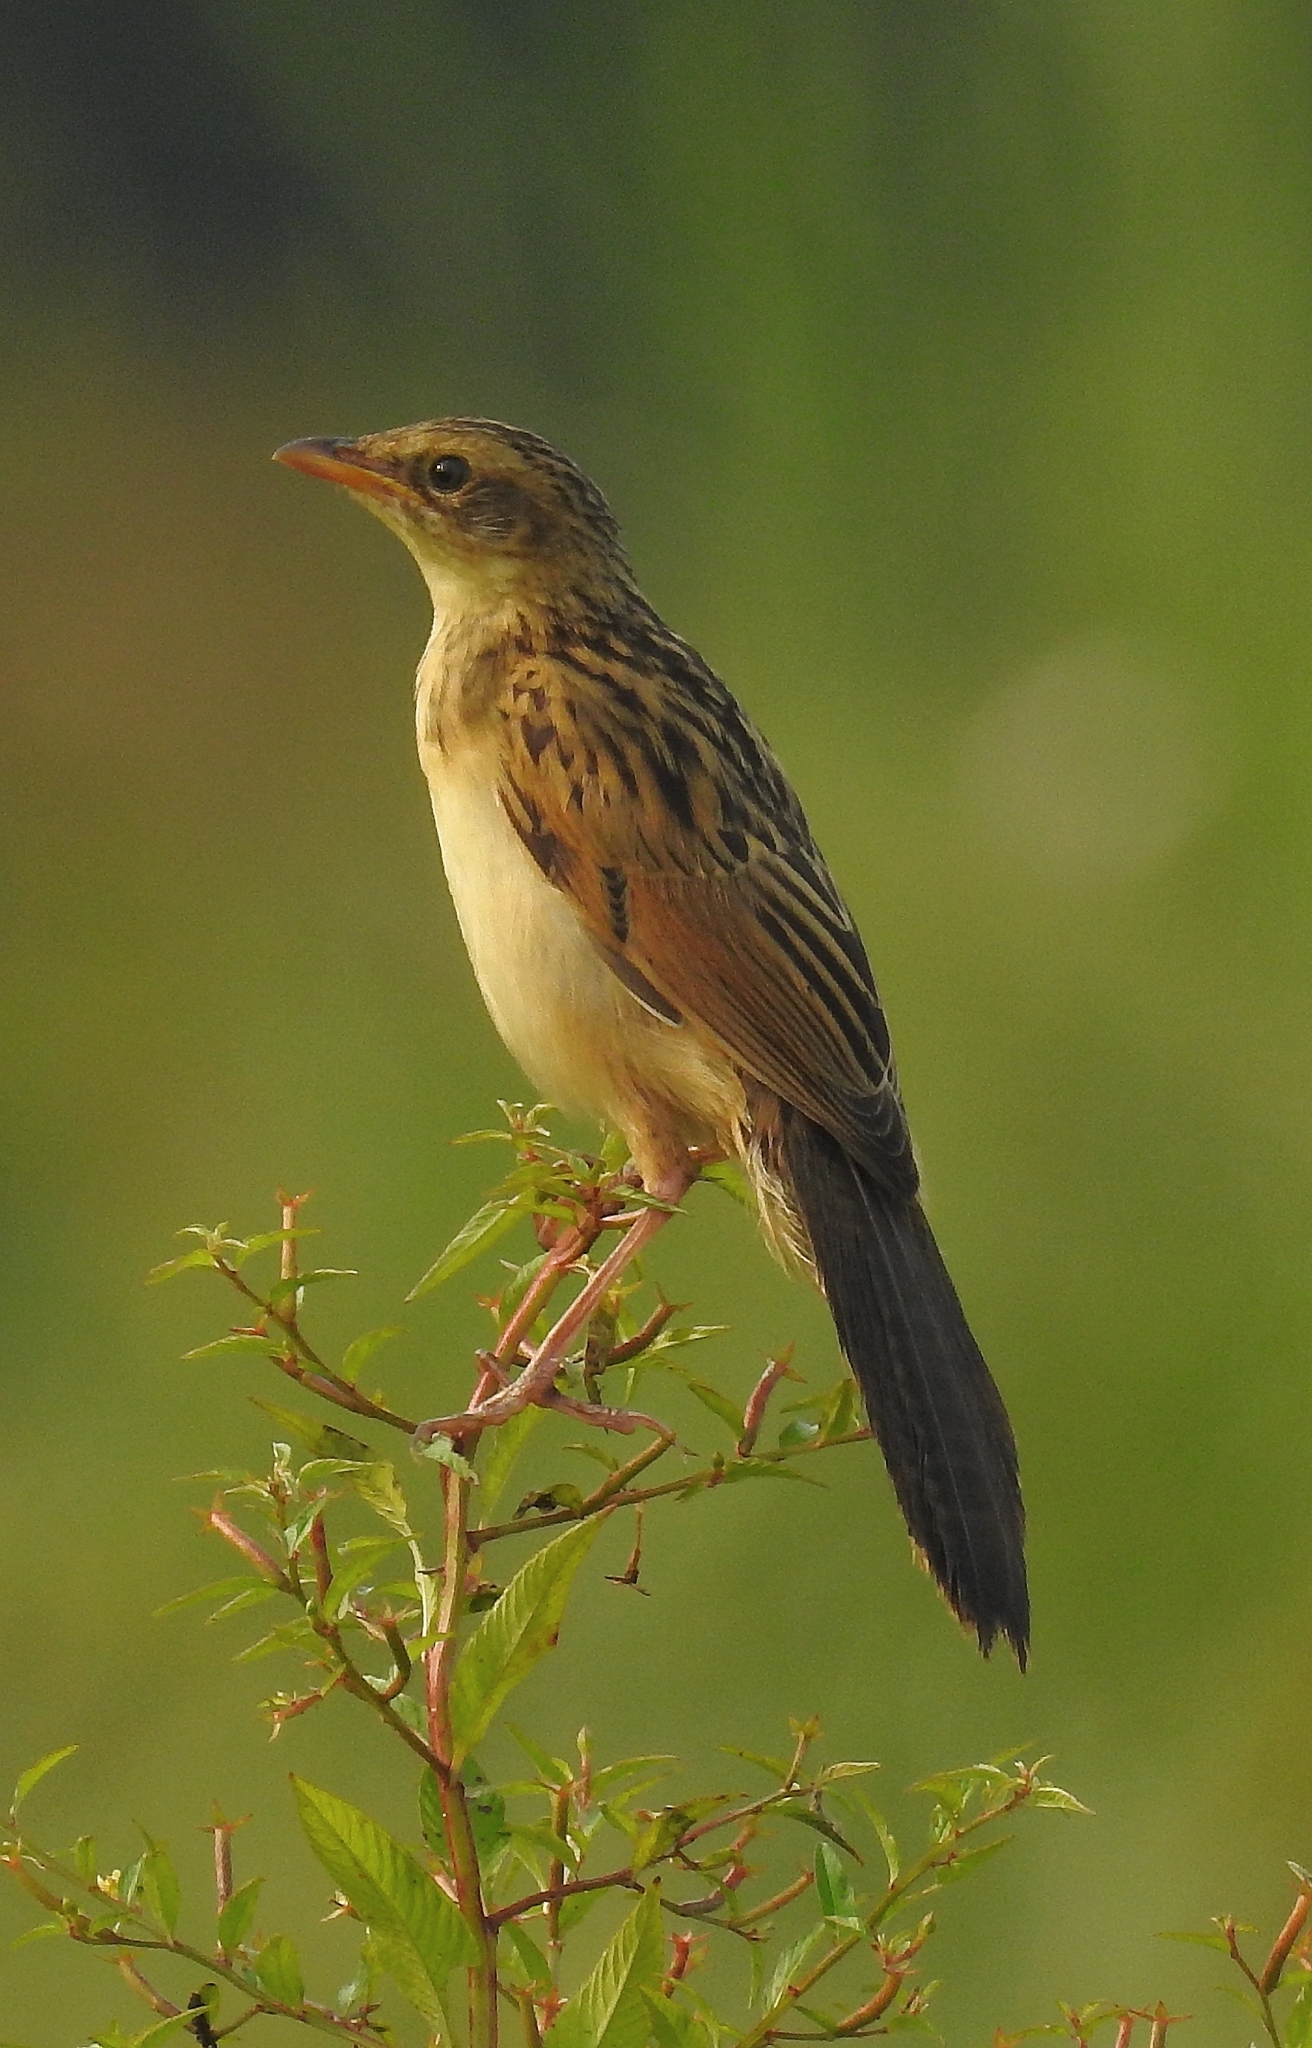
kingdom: Animalia
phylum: Chordata
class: Aves
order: Passeriformes
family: Locustellidae
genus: Chaetornis
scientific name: Chaetornis striata
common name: Bristled grassbird
